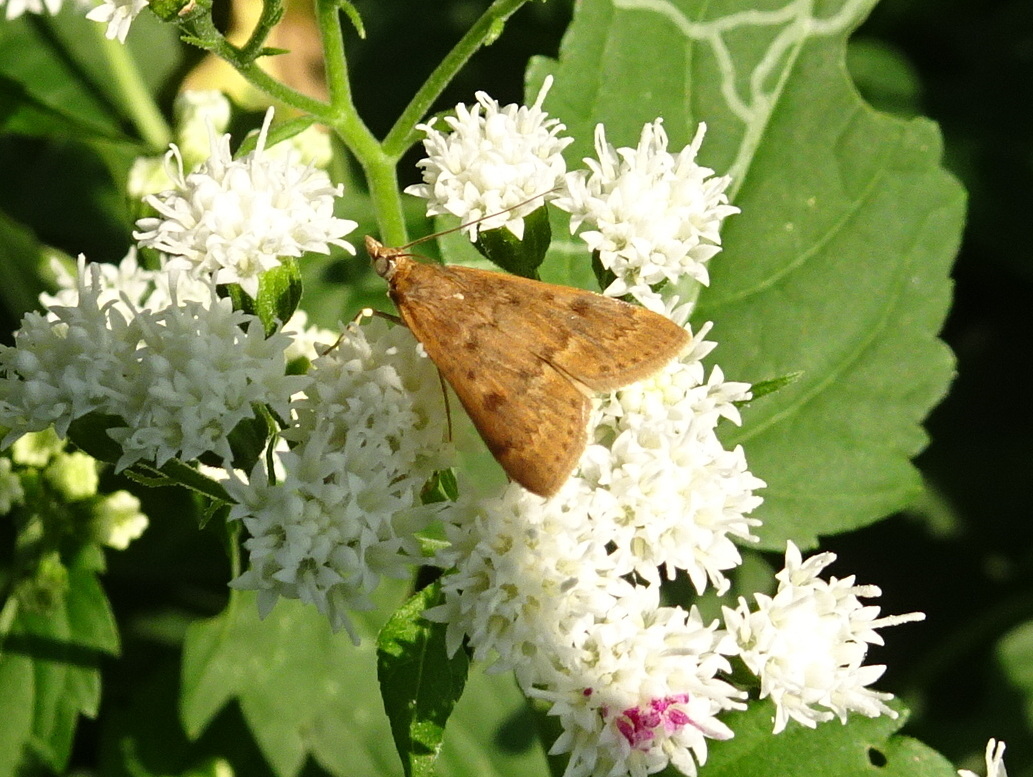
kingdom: Animalia
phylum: Arthropoda
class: Insecta
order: Lepidoptera
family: Crambidae
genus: Achyra
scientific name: Achyra rantalis
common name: Garden webworm
